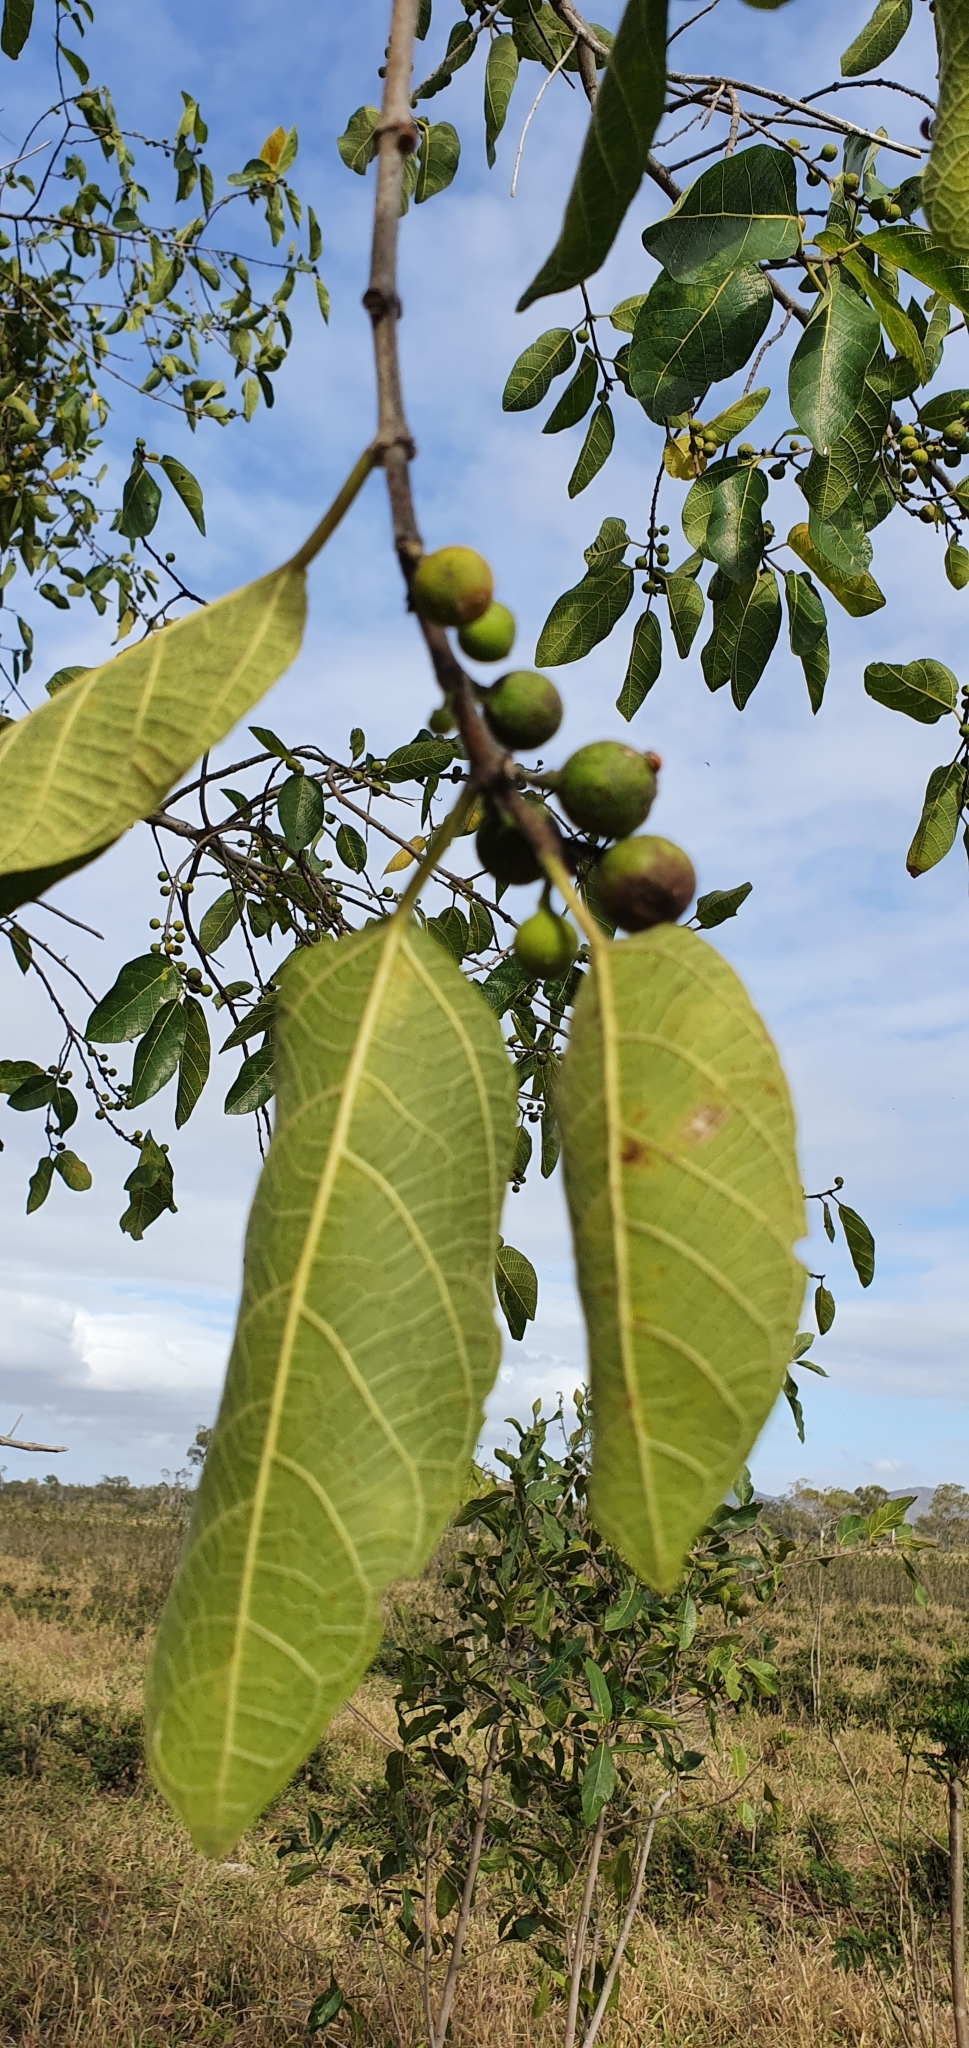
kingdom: Plantae
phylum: Tracheophyta
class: Magnoliopsida
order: Rosales
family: Moraceae
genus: Ficus
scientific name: Ficus opposita
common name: Figwood
